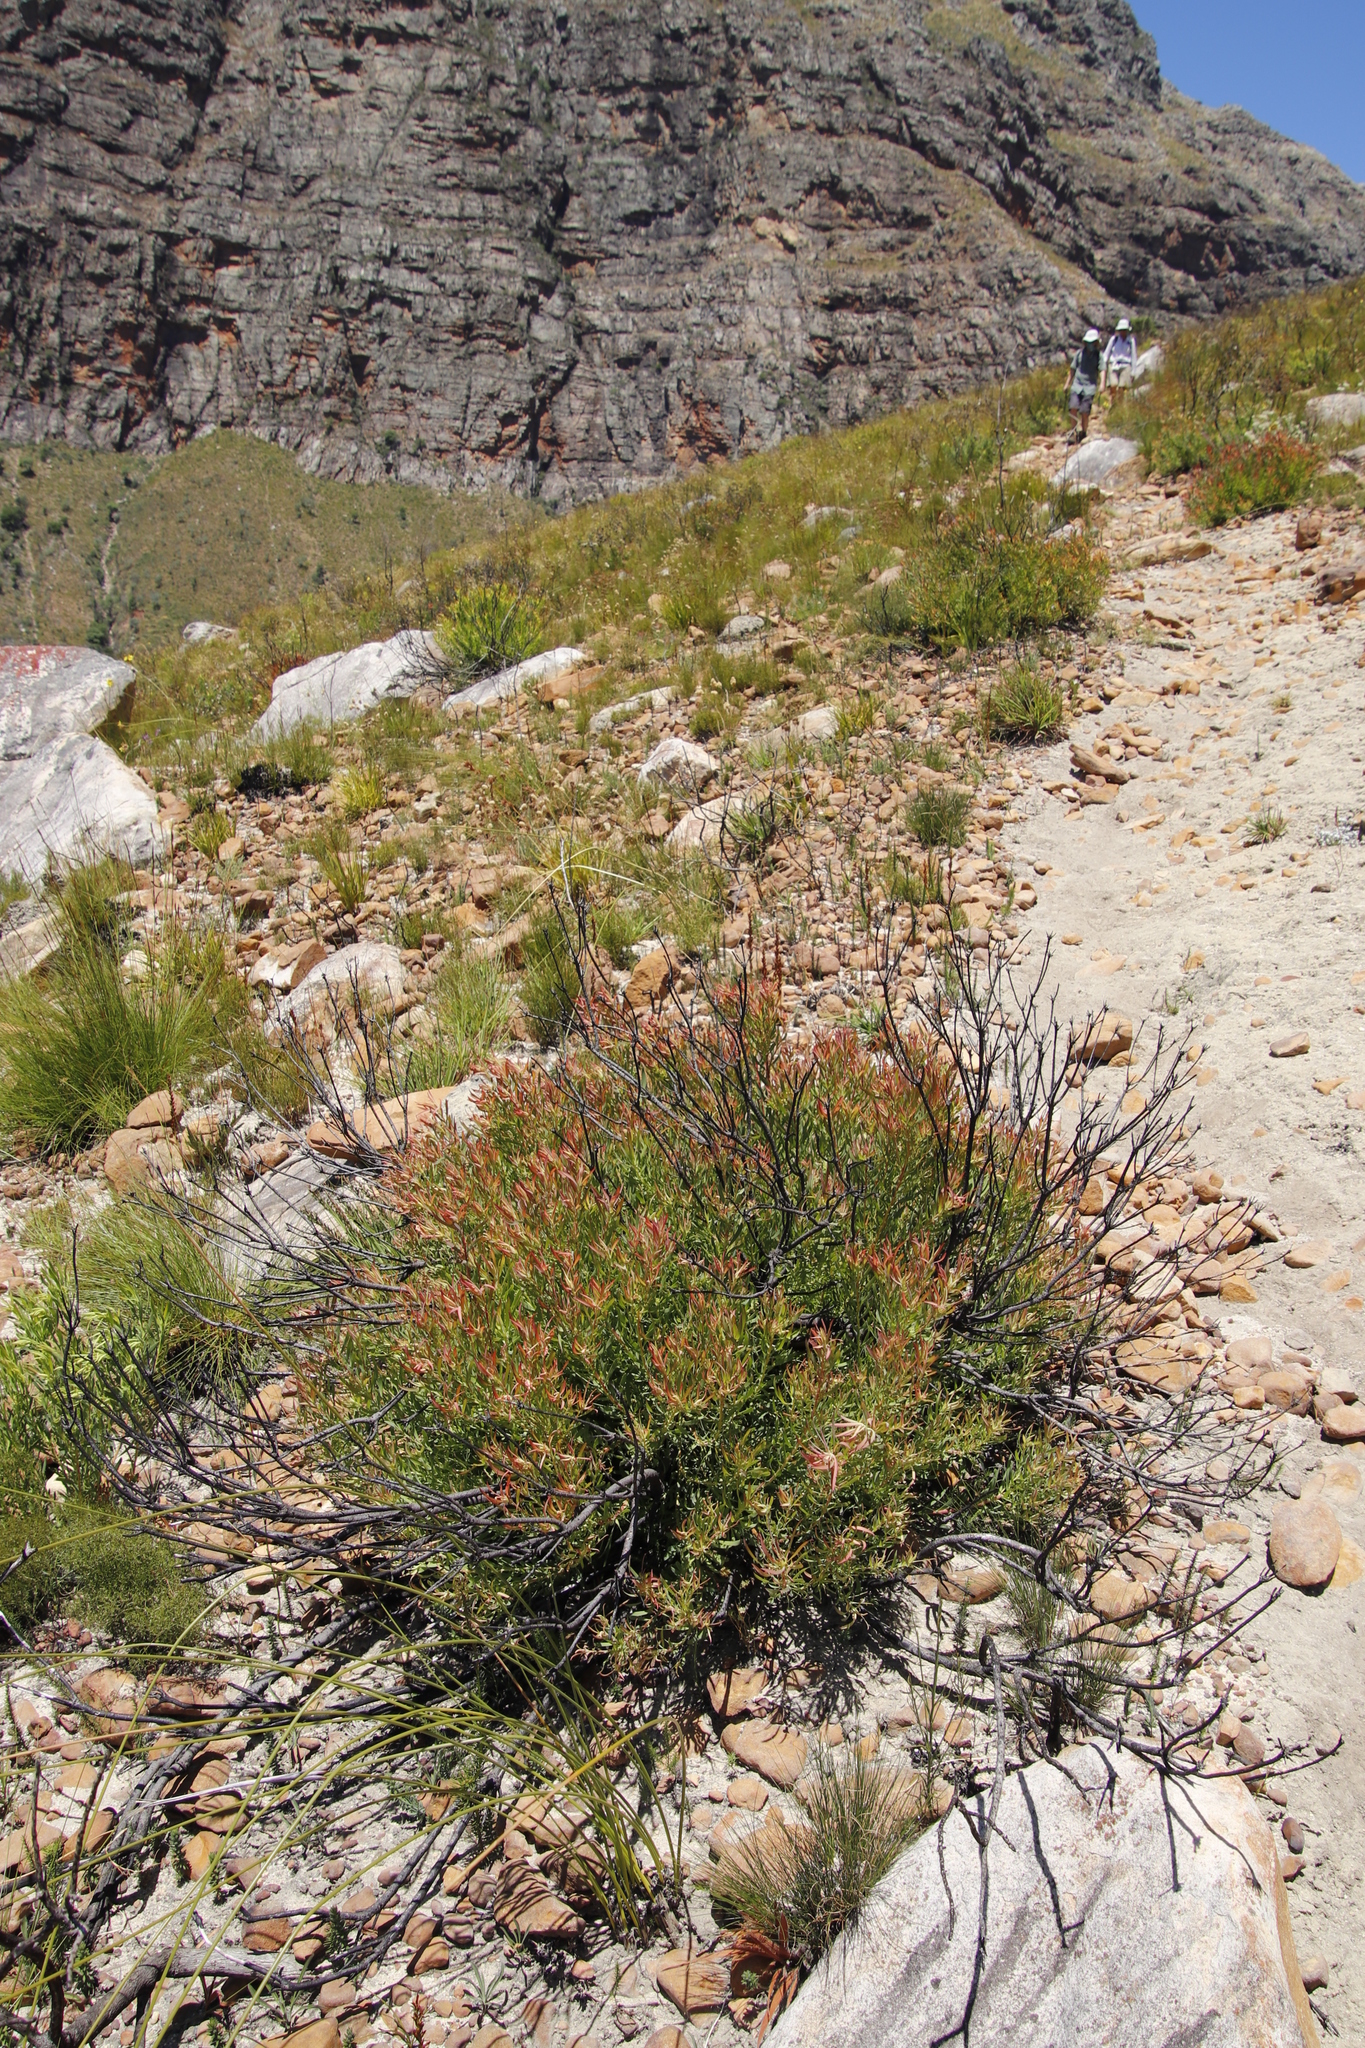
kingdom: Plantae
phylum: Tracheophyta
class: Magnoliopsida
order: Proteales
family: Proteaceae
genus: Leucadendron
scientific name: Leucadendron salignum
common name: Common sunshine conebush
